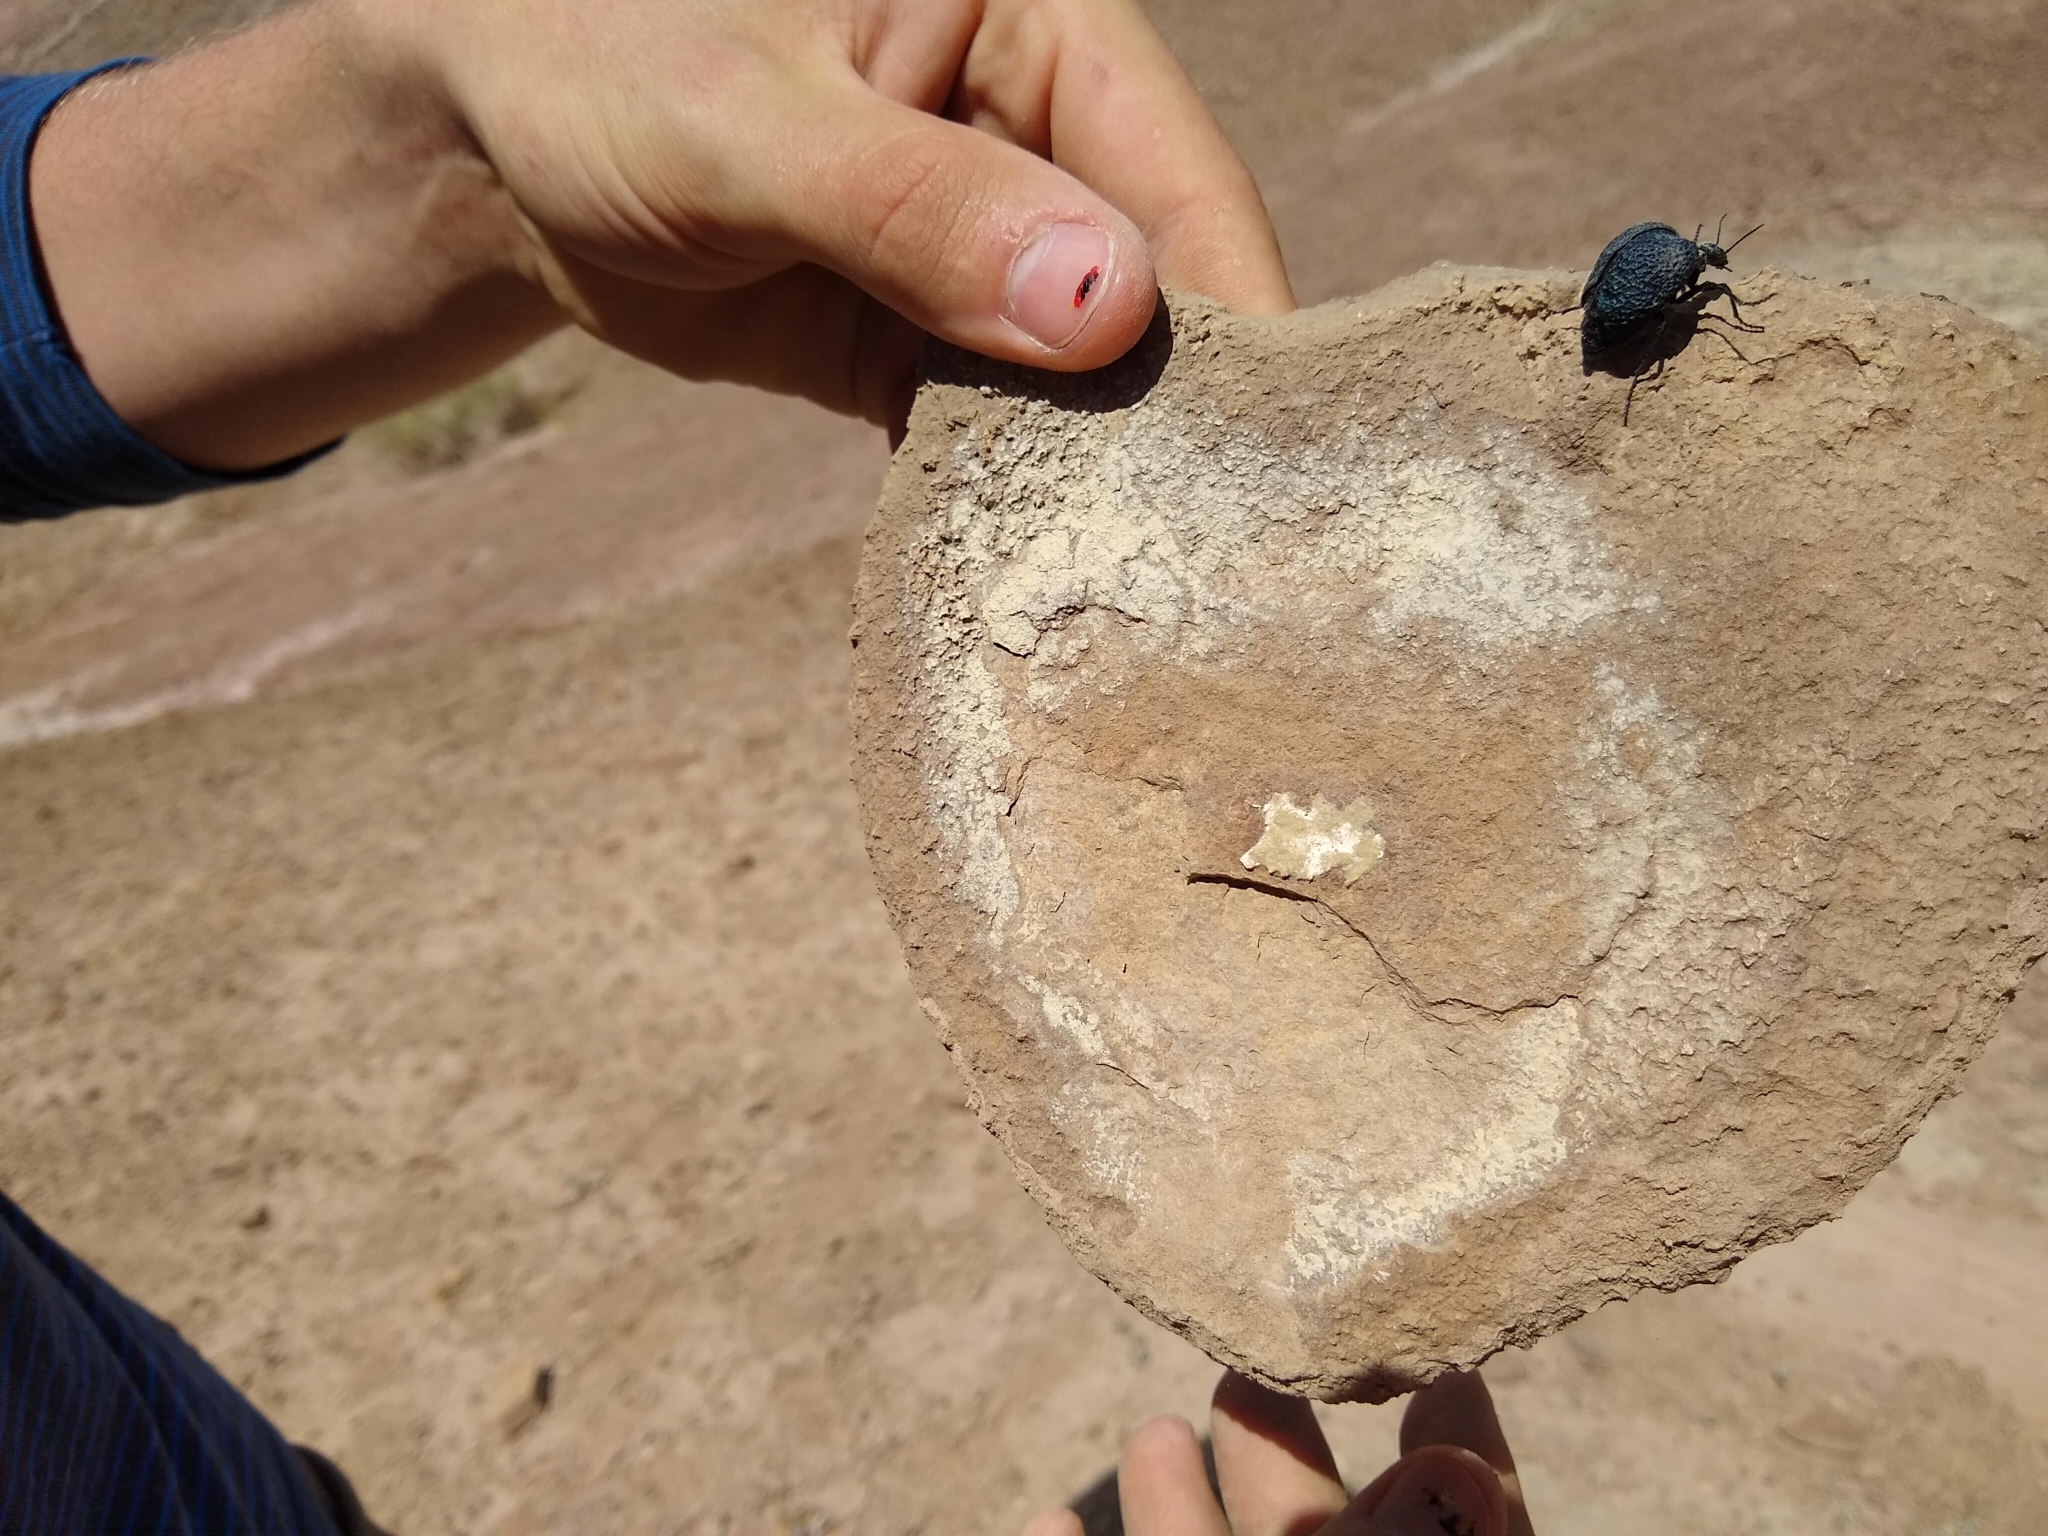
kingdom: Animalia
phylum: Arthropoda
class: Insecta
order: Coleoptera
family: Meloidae
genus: Cysteodemus
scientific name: Cysteodemus armatus
